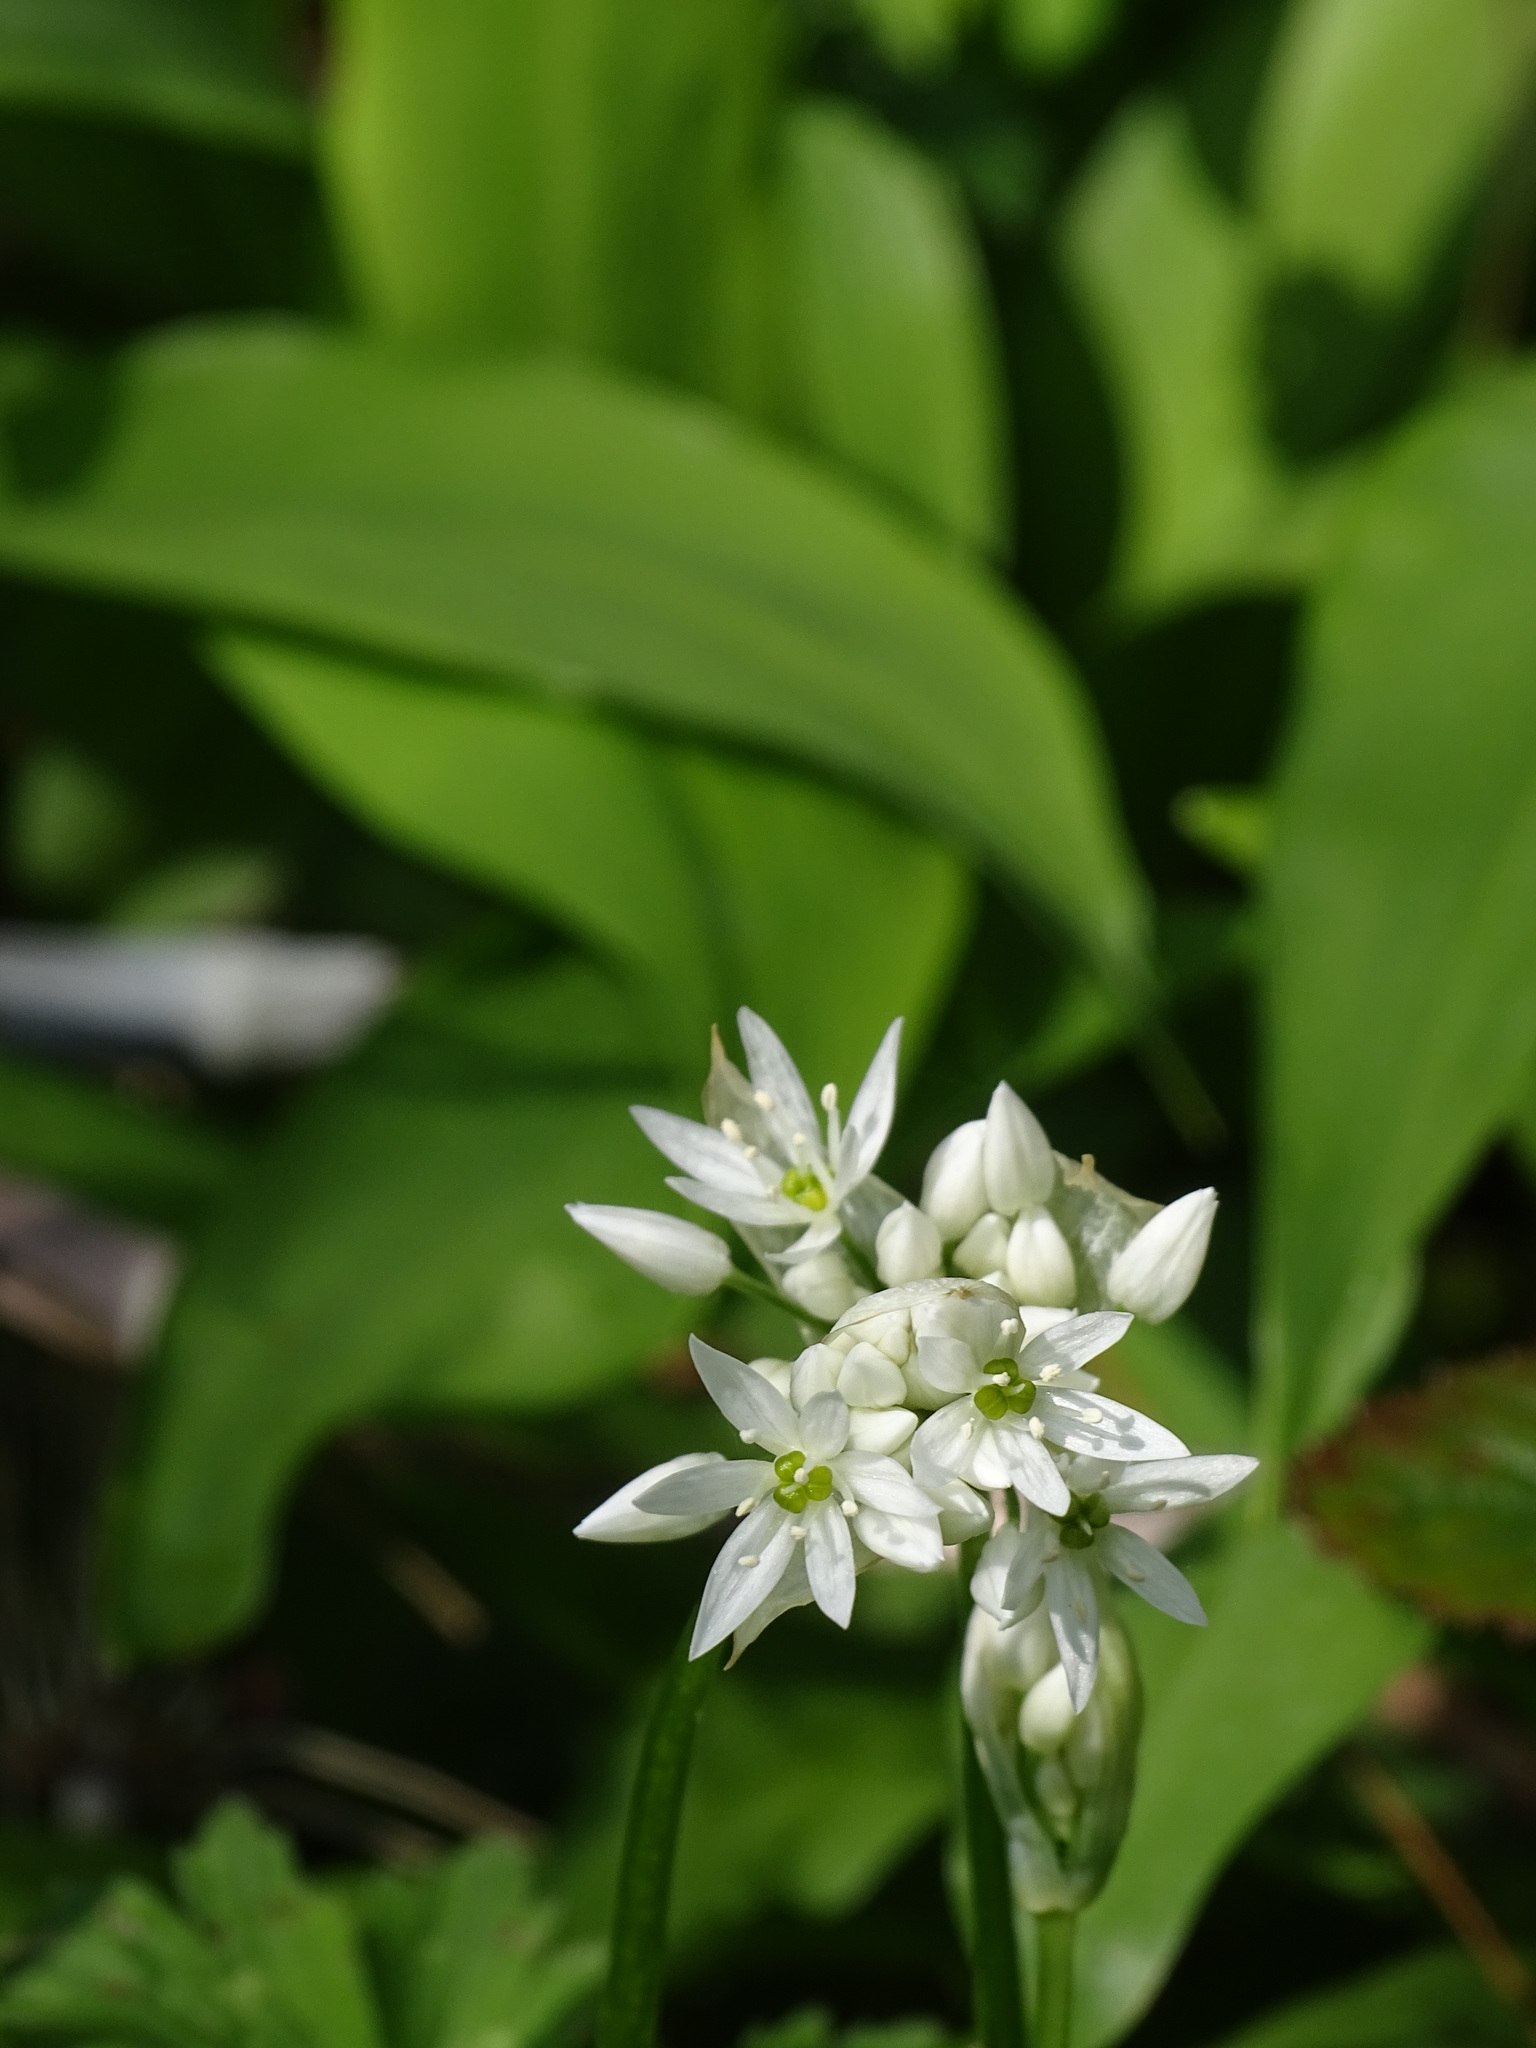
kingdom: Plantae
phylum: Tracheophyta
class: Liliopsida
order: Asparagales
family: Amaryllidaceae
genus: Allium
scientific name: Allium ursinum
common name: Ramsons
